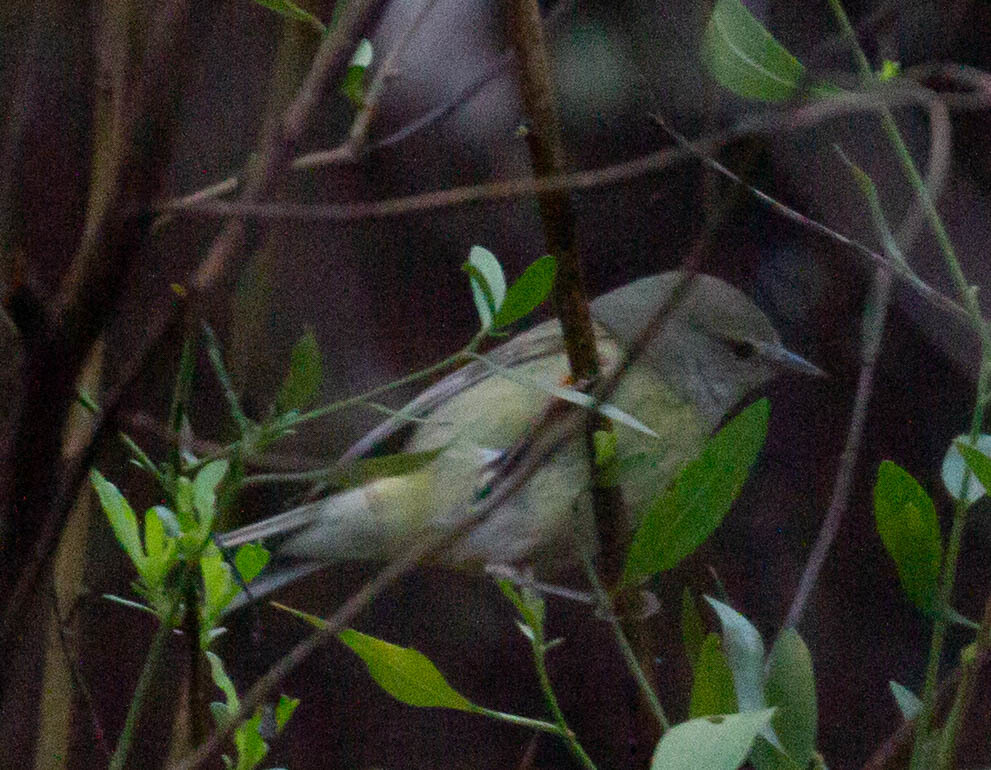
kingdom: Animalia
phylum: Chordata
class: Aves
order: Passeriformes
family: Parulidae
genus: Leiothlypis
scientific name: Leiothlypis celata
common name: Orange-crowned warbler
